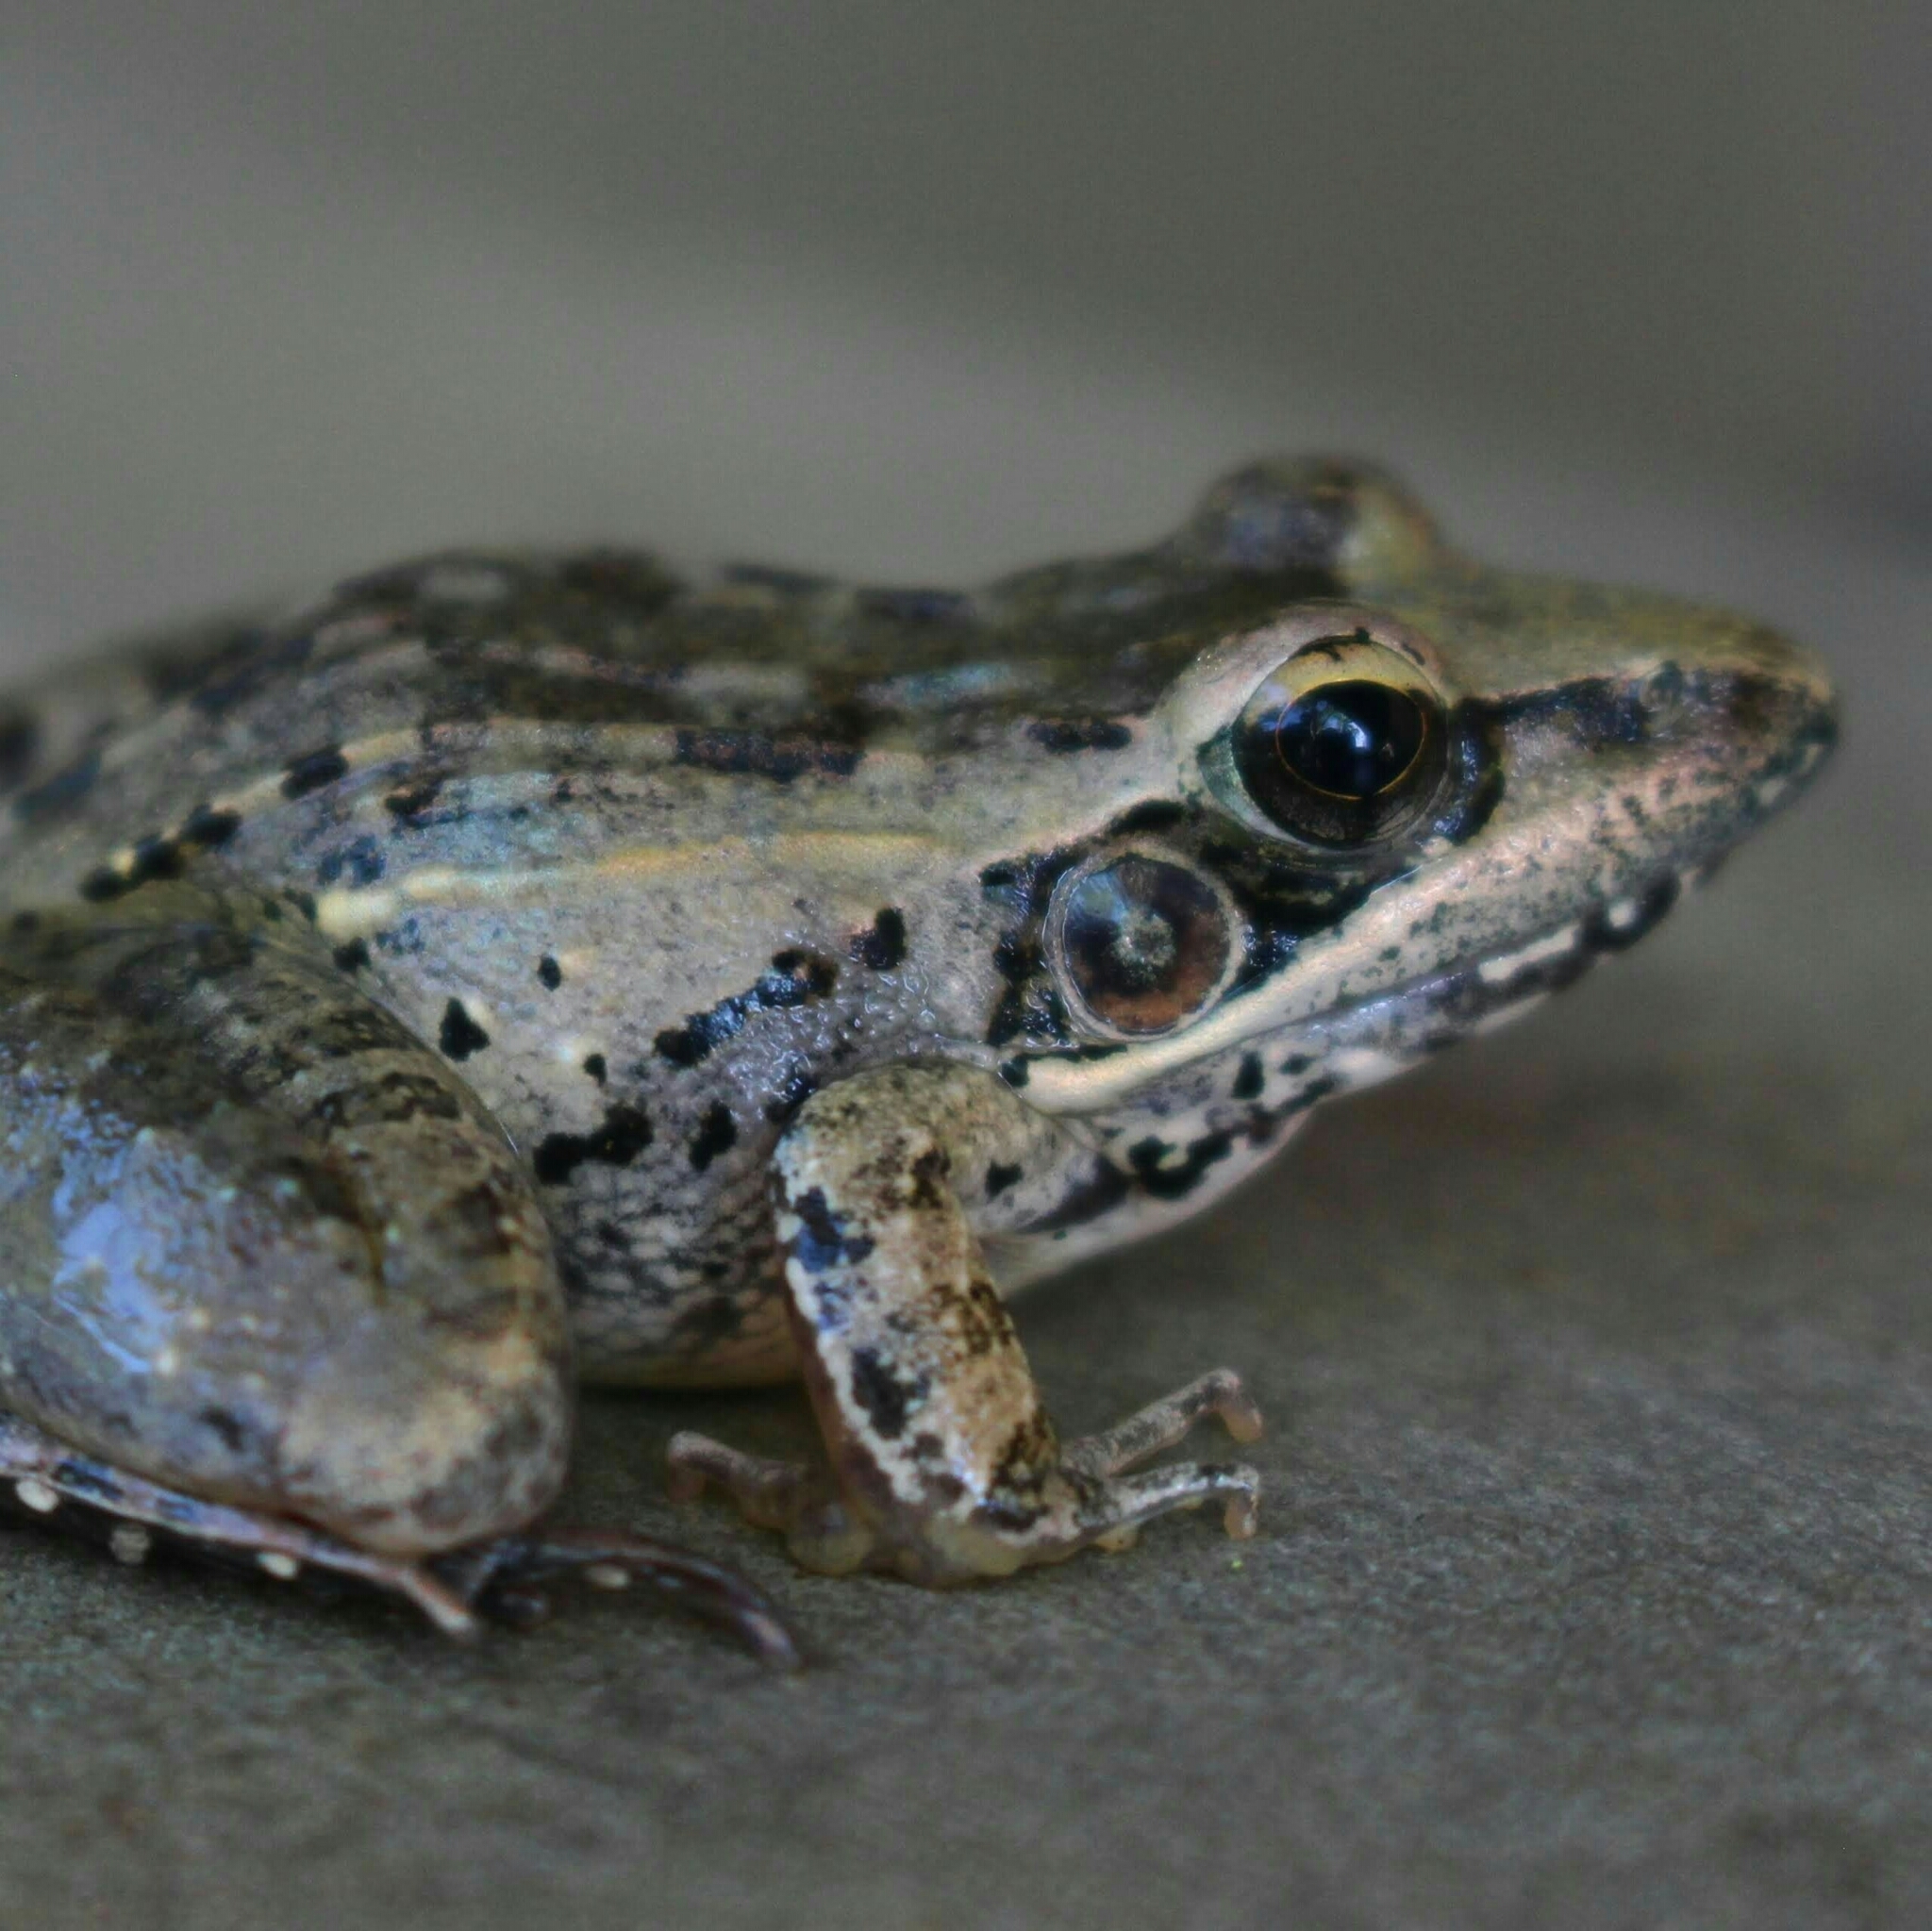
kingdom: Animalia
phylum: Chordata
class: Amphibia
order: Anura
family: Ptychadenidae
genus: Ptychadena
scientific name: Ptychadena anchietae
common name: Anchieta's ridged frog
